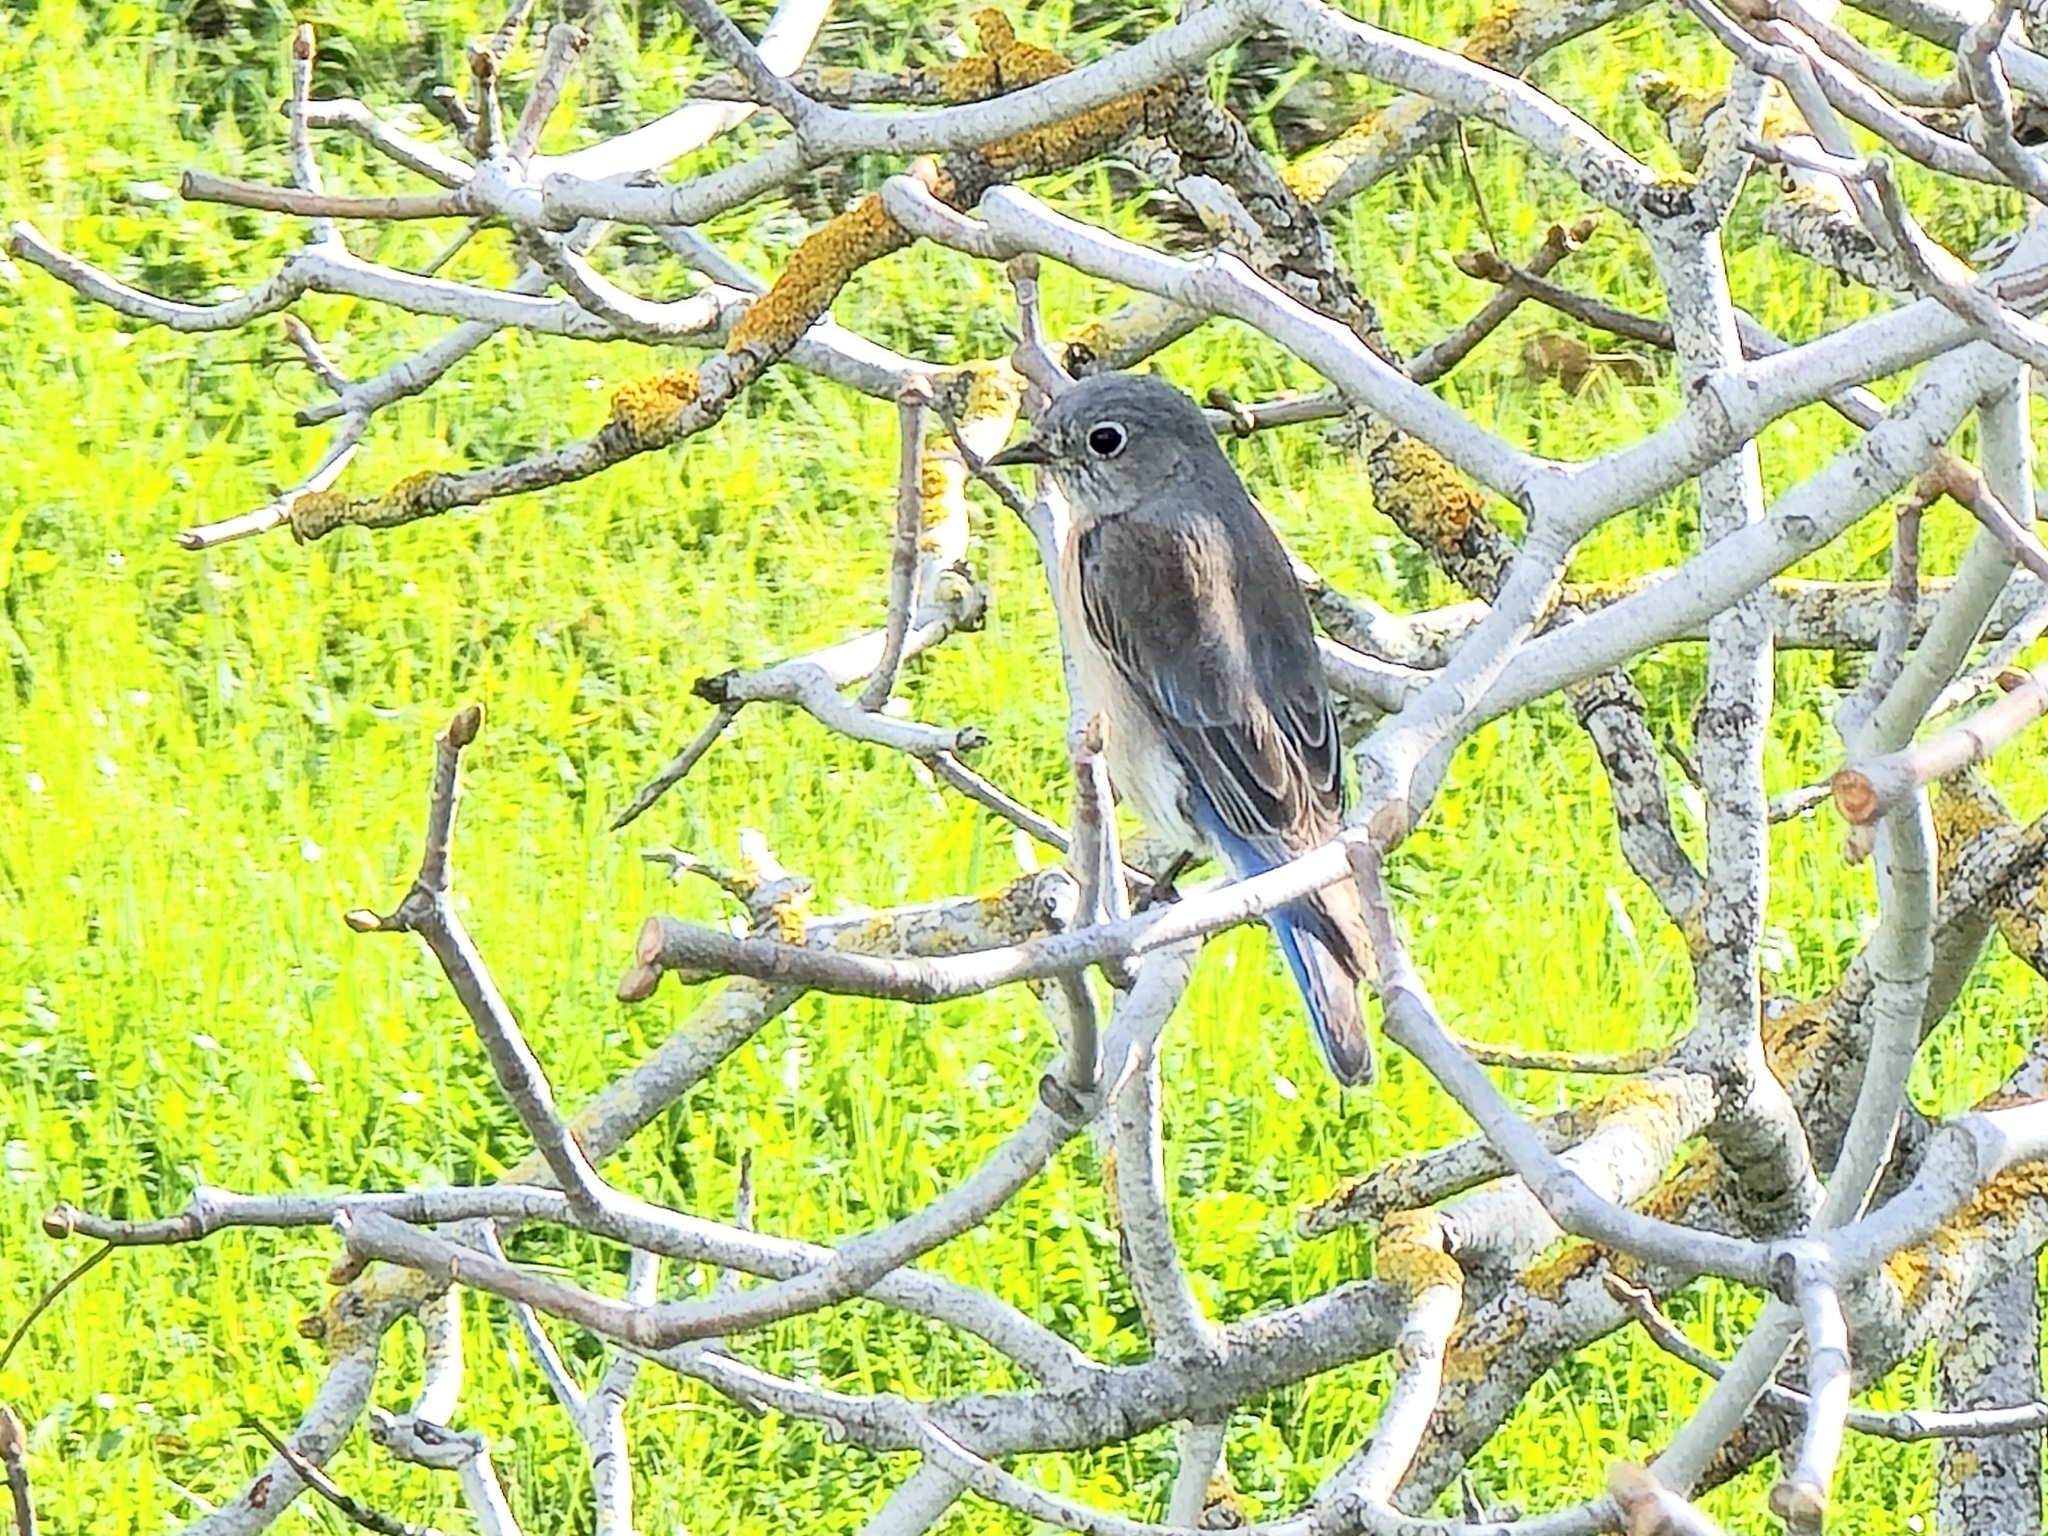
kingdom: Animalia
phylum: Chordata
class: Aves
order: Passeriformes
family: Turdidae
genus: Sialia
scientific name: Sialia mexicana
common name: Western bluebird
